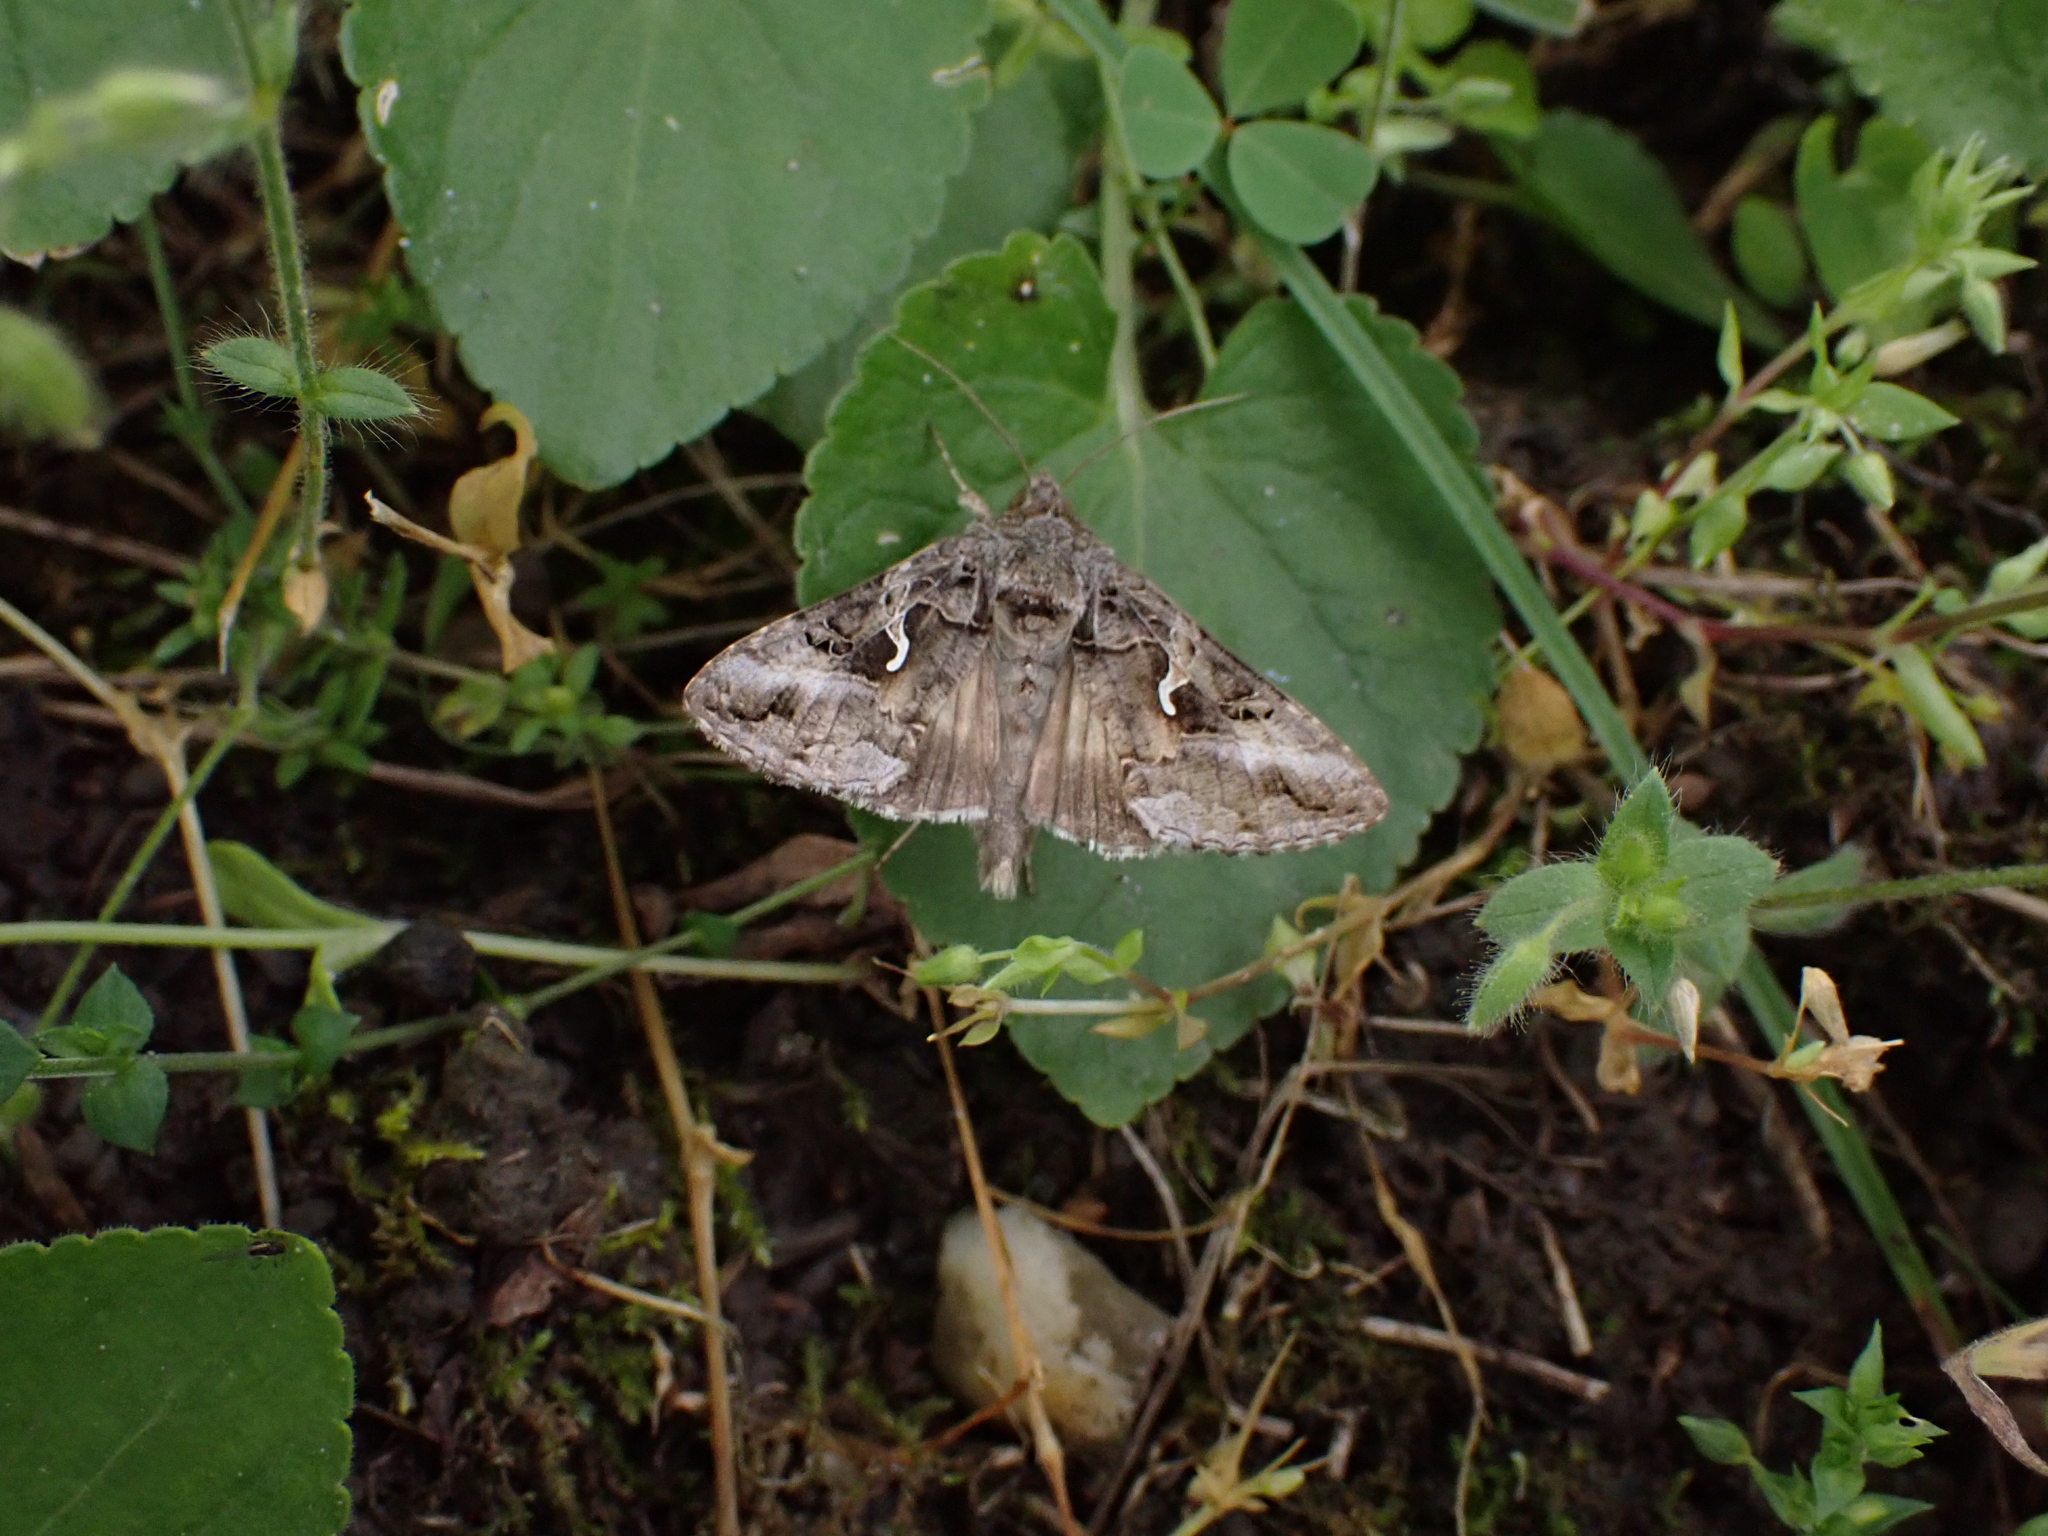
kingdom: Animalia
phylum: Arthropoda
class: Insecta
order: Lepidoptera
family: Noctuidae
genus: Autographa
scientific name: Autographa gamma
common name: Silver y
